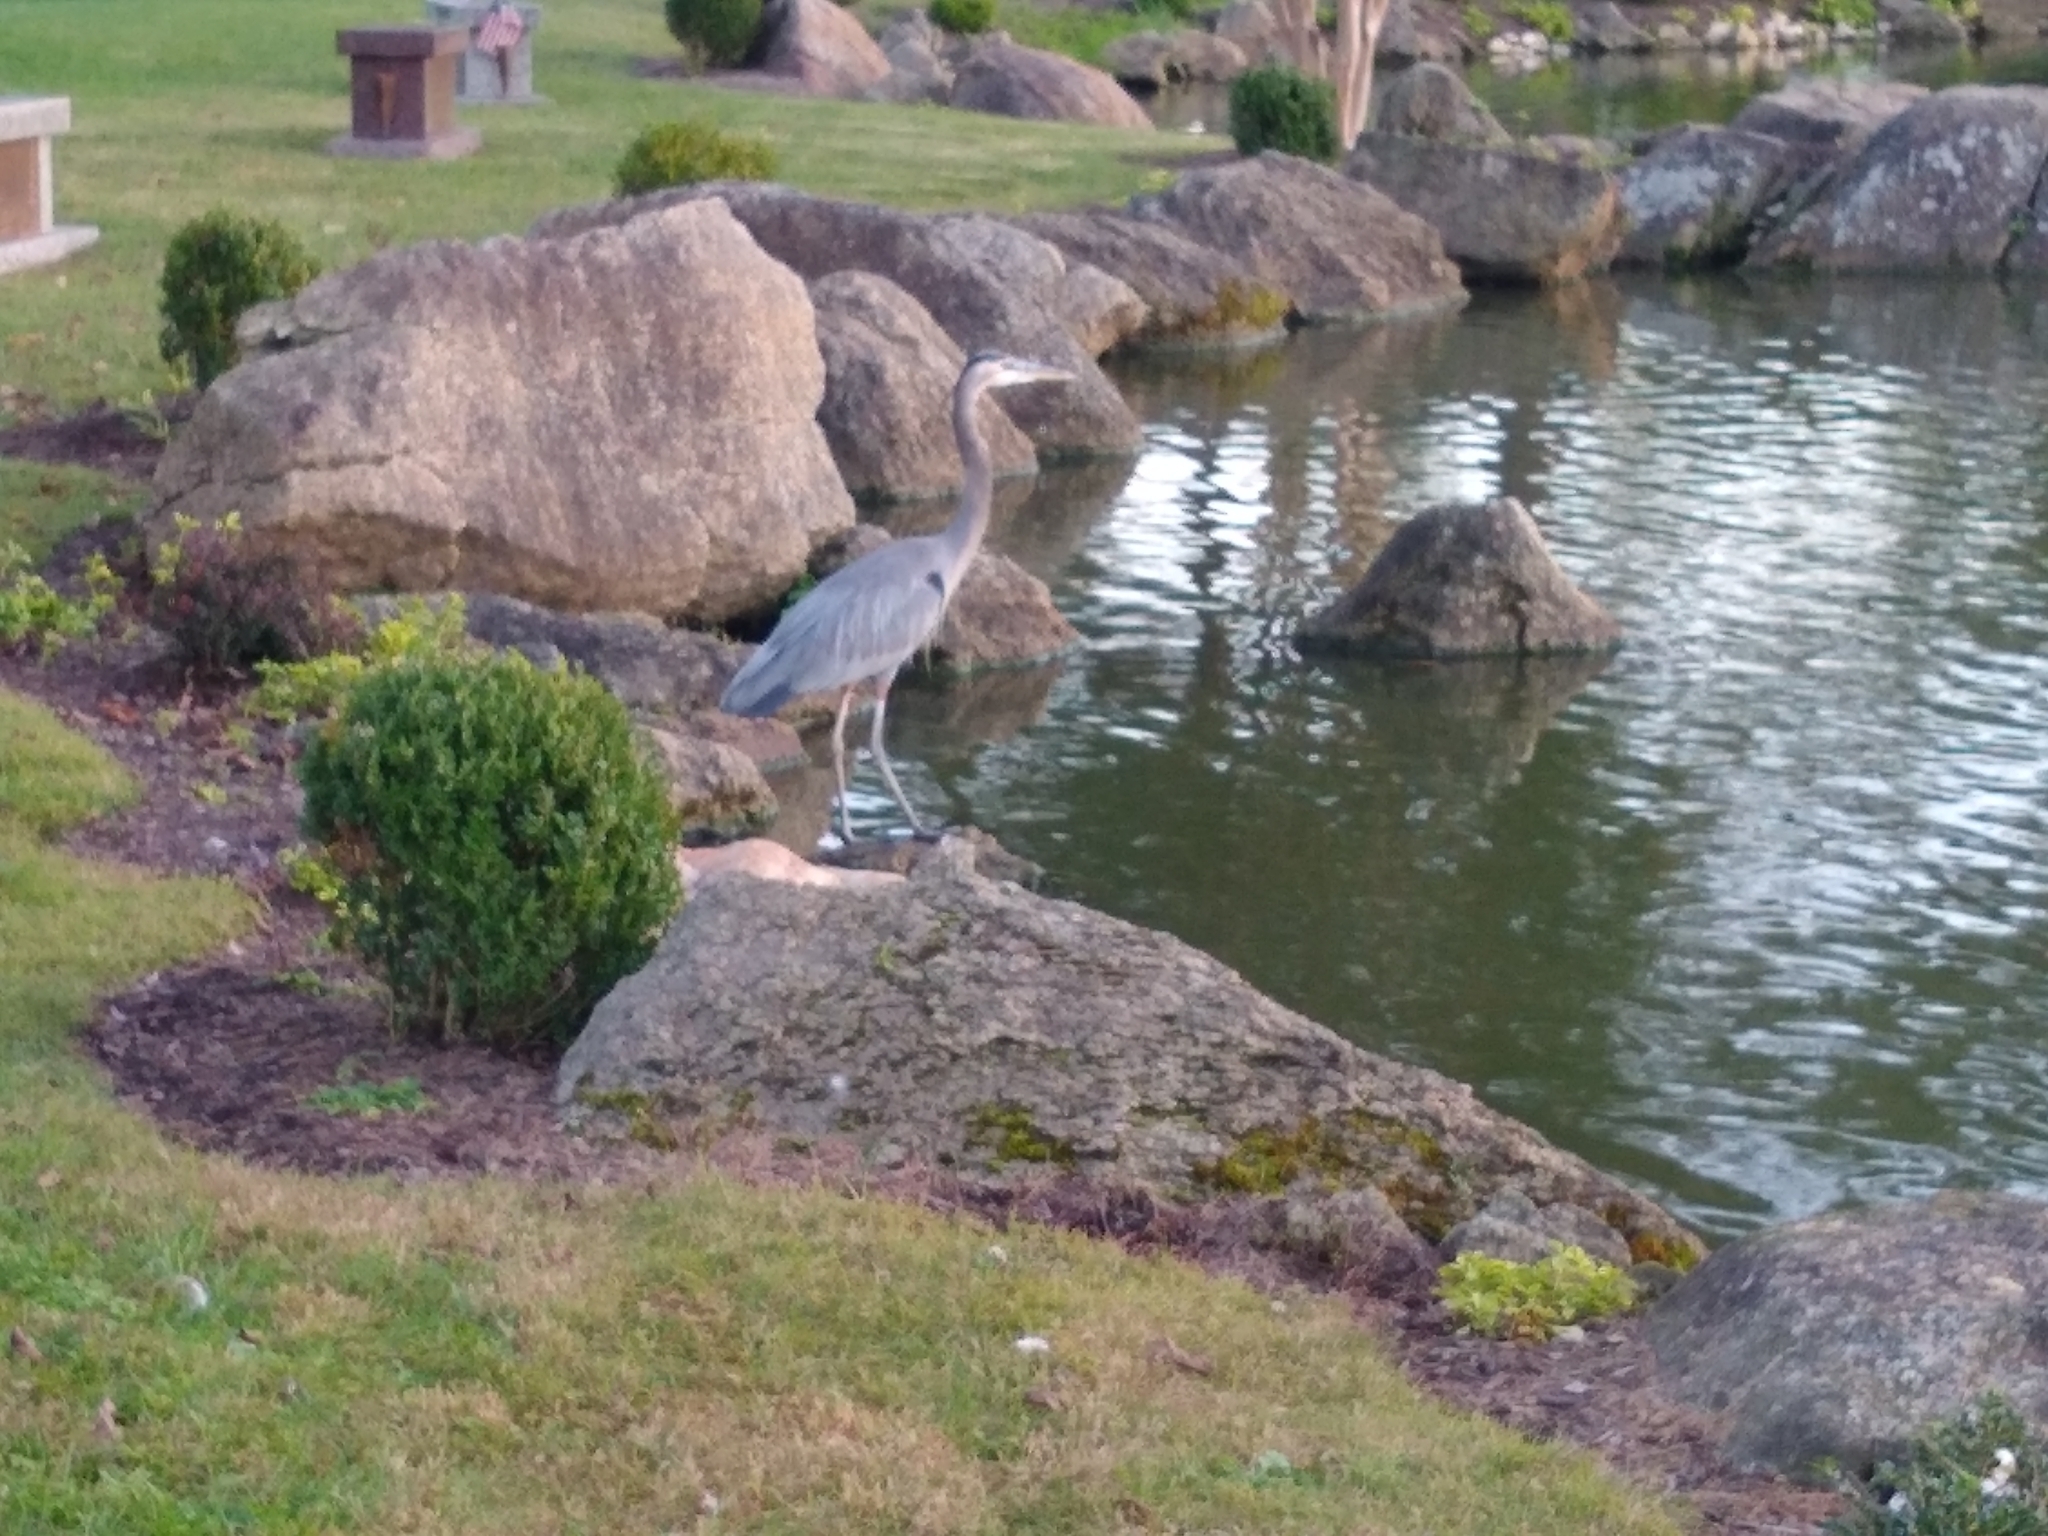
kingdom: Animalia
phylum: Chordata
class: Aves
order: Pelecaniformes
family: Ardeidae
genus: Ardea
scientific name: Ardea herodias
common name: Great blue heron
